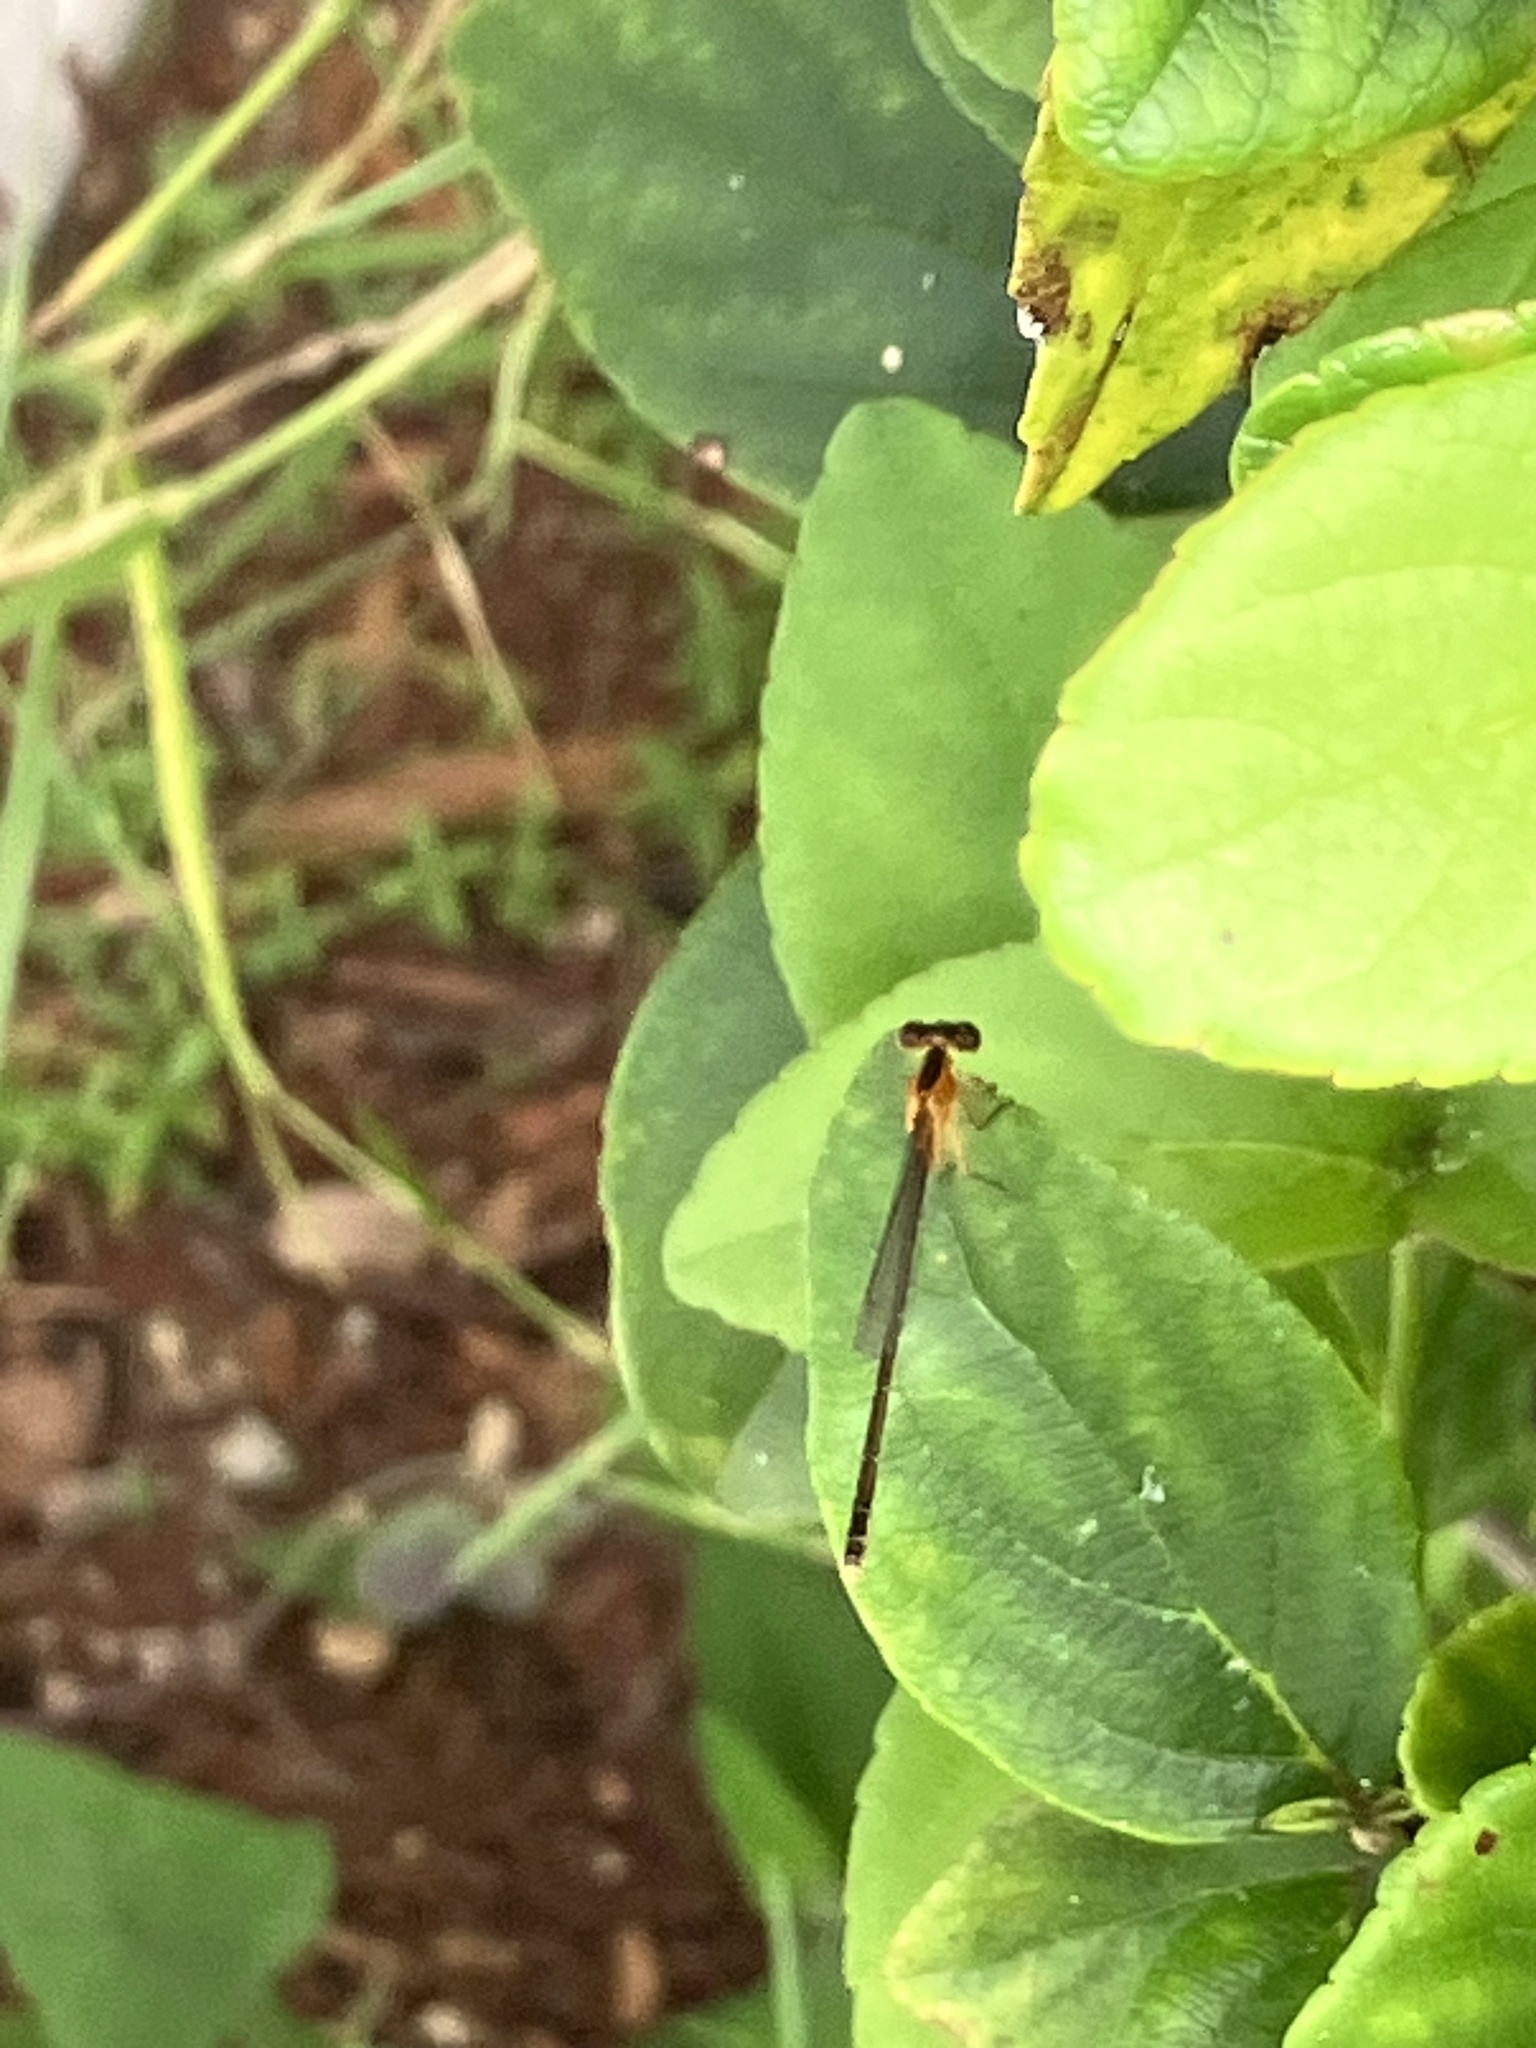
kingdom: Animalia
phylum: Arthropoda
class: Insecta
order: Odonata
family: Coenagrionidae
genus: Ischnura
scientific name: Ischnura ramburii
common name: Rambur's forktail
